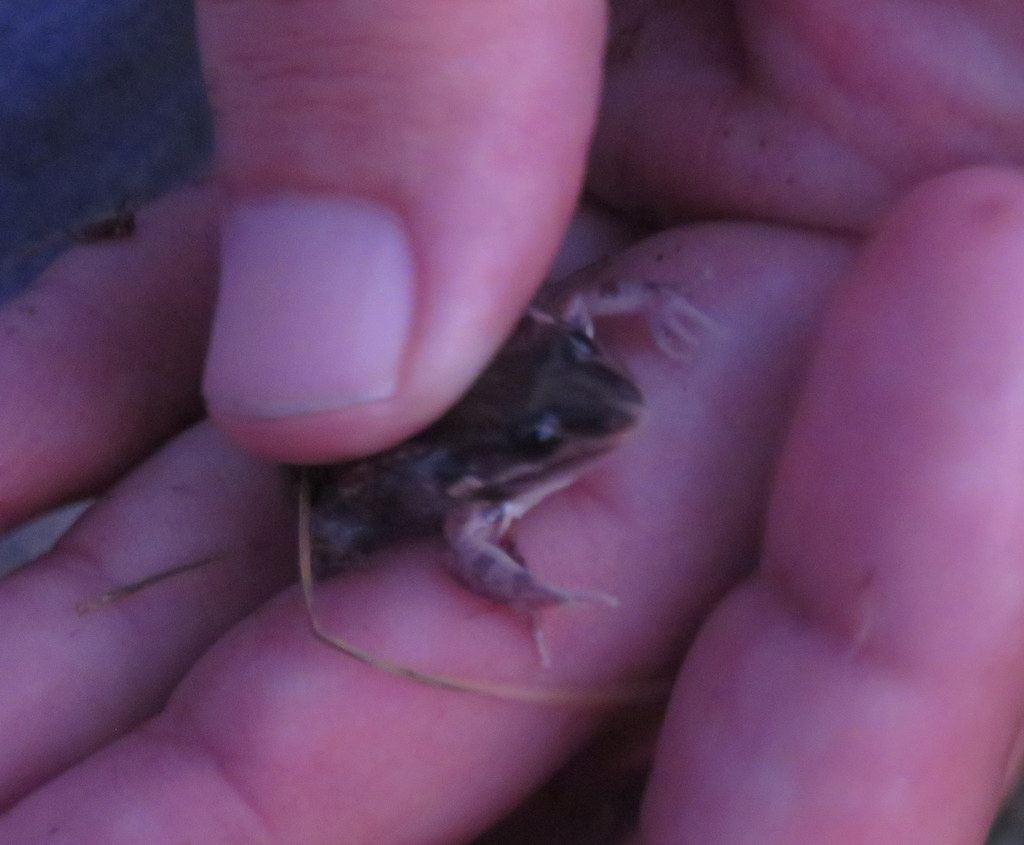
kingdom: Animalia
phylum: Chordata
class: Amphibia
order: Anura
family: Leptodactylidae
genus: Leptodactylus
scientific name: Leptodactylus latinasus
